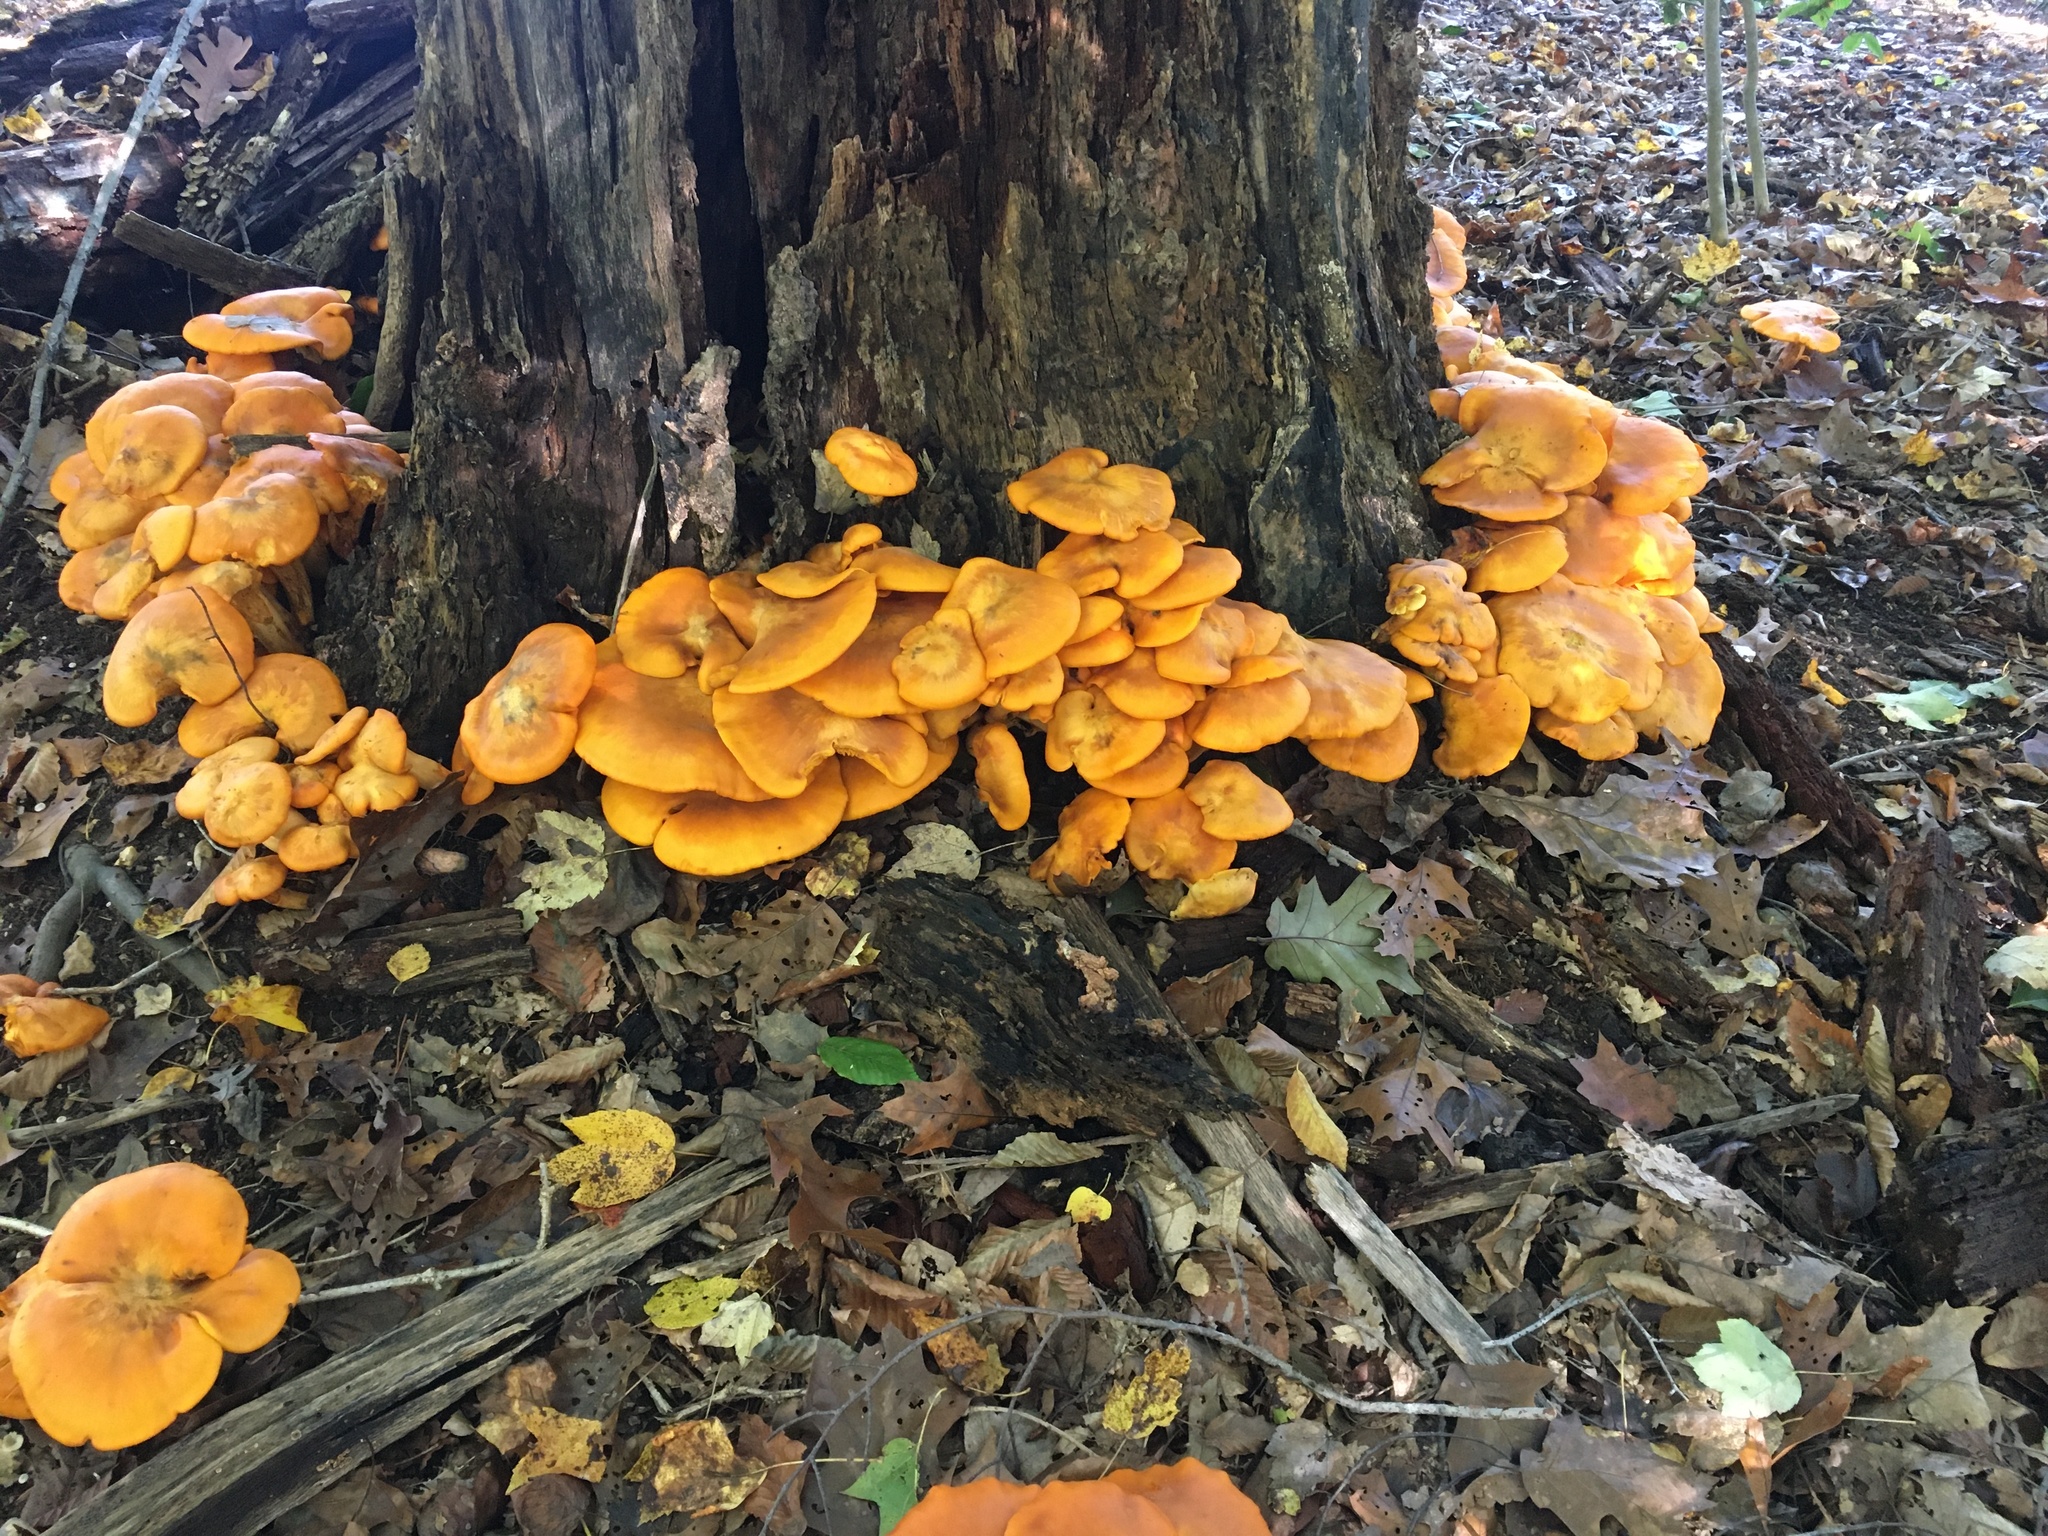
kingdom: Fungi
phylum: Basidiomycota
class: Agaricomycetes
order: Agaricales
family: Omphalotaceae
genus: Omphalotus
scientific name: Omphalotus illudens
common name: Jack o lantern
